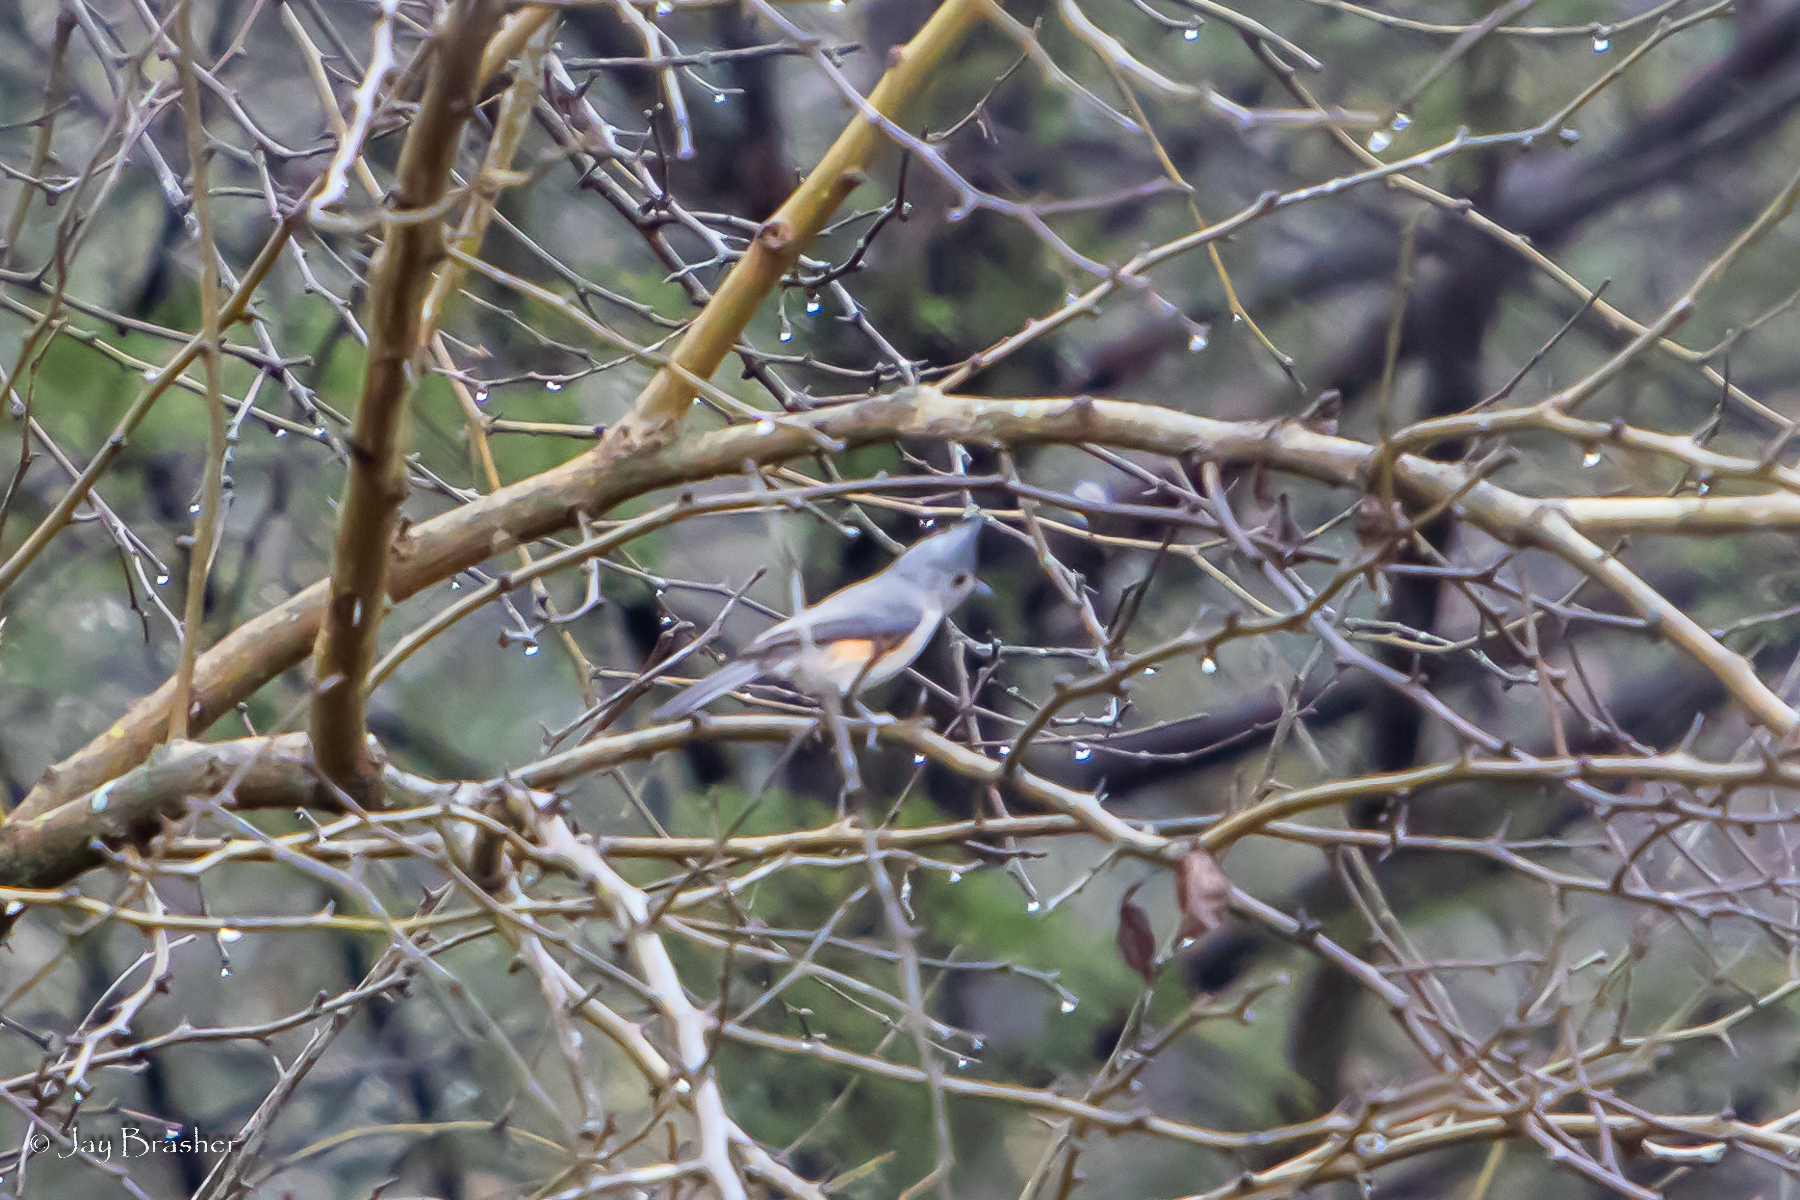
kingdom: Animalia
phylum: Chordata
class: Aves
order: Passeriformes
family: Paridae
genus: Baeolophus
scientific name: Baeolophus bicolor
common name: Tufted titmouse
